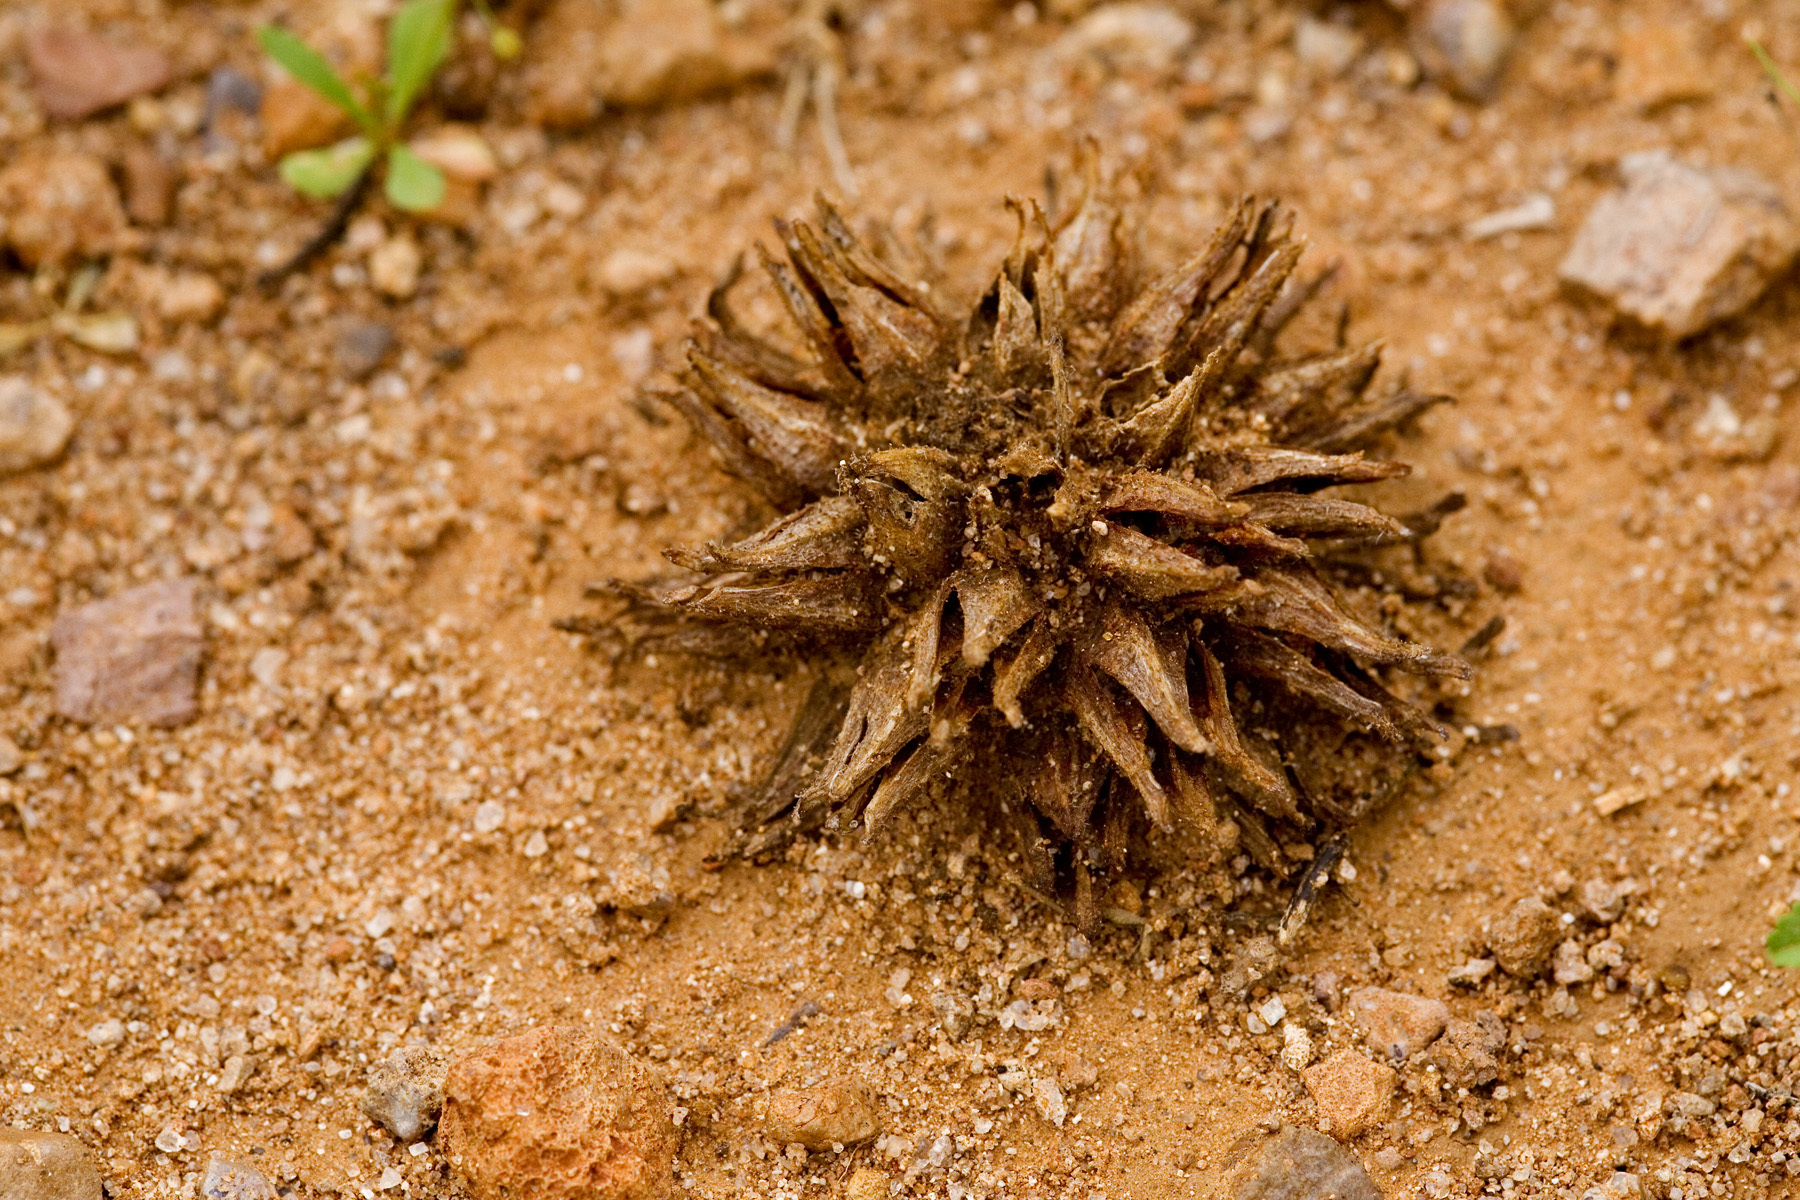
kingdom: Plantae
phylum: Tracheophyta
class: Magnoliopsida
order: Myrtales
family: Onagraceae
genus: Oenothera
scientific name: Oenothera primiveris
